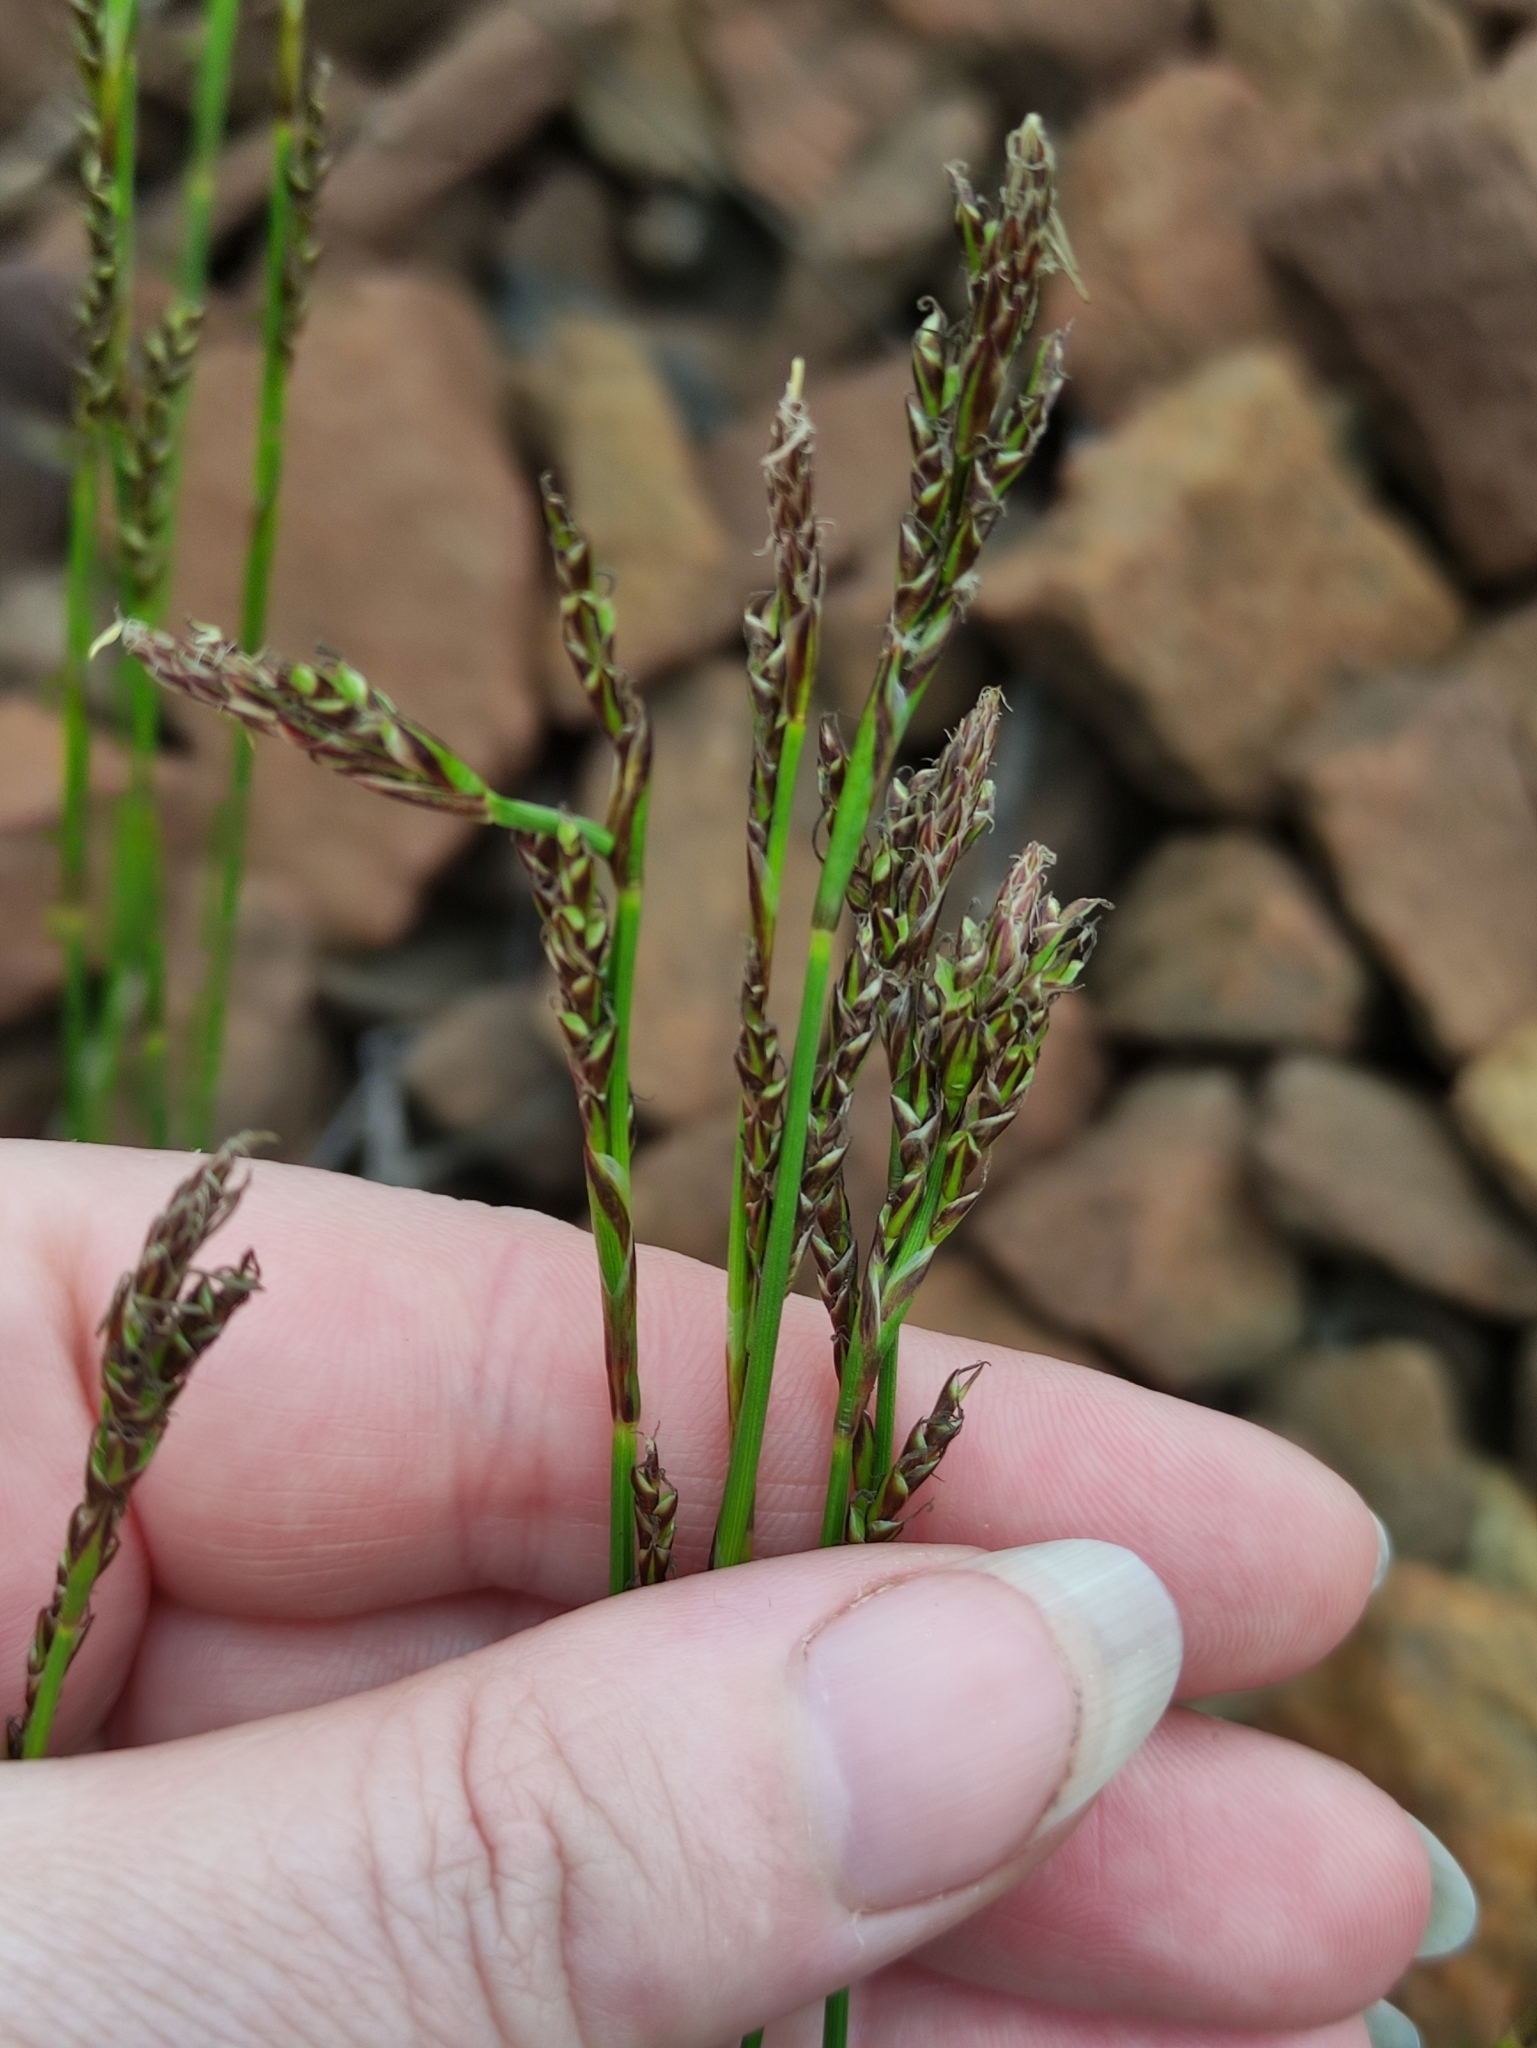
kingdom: Plantae
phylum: Tracheophyta
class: Liliopsida
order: Poales
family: Cyperaceae
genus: Carex
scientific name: Carex rhizina
